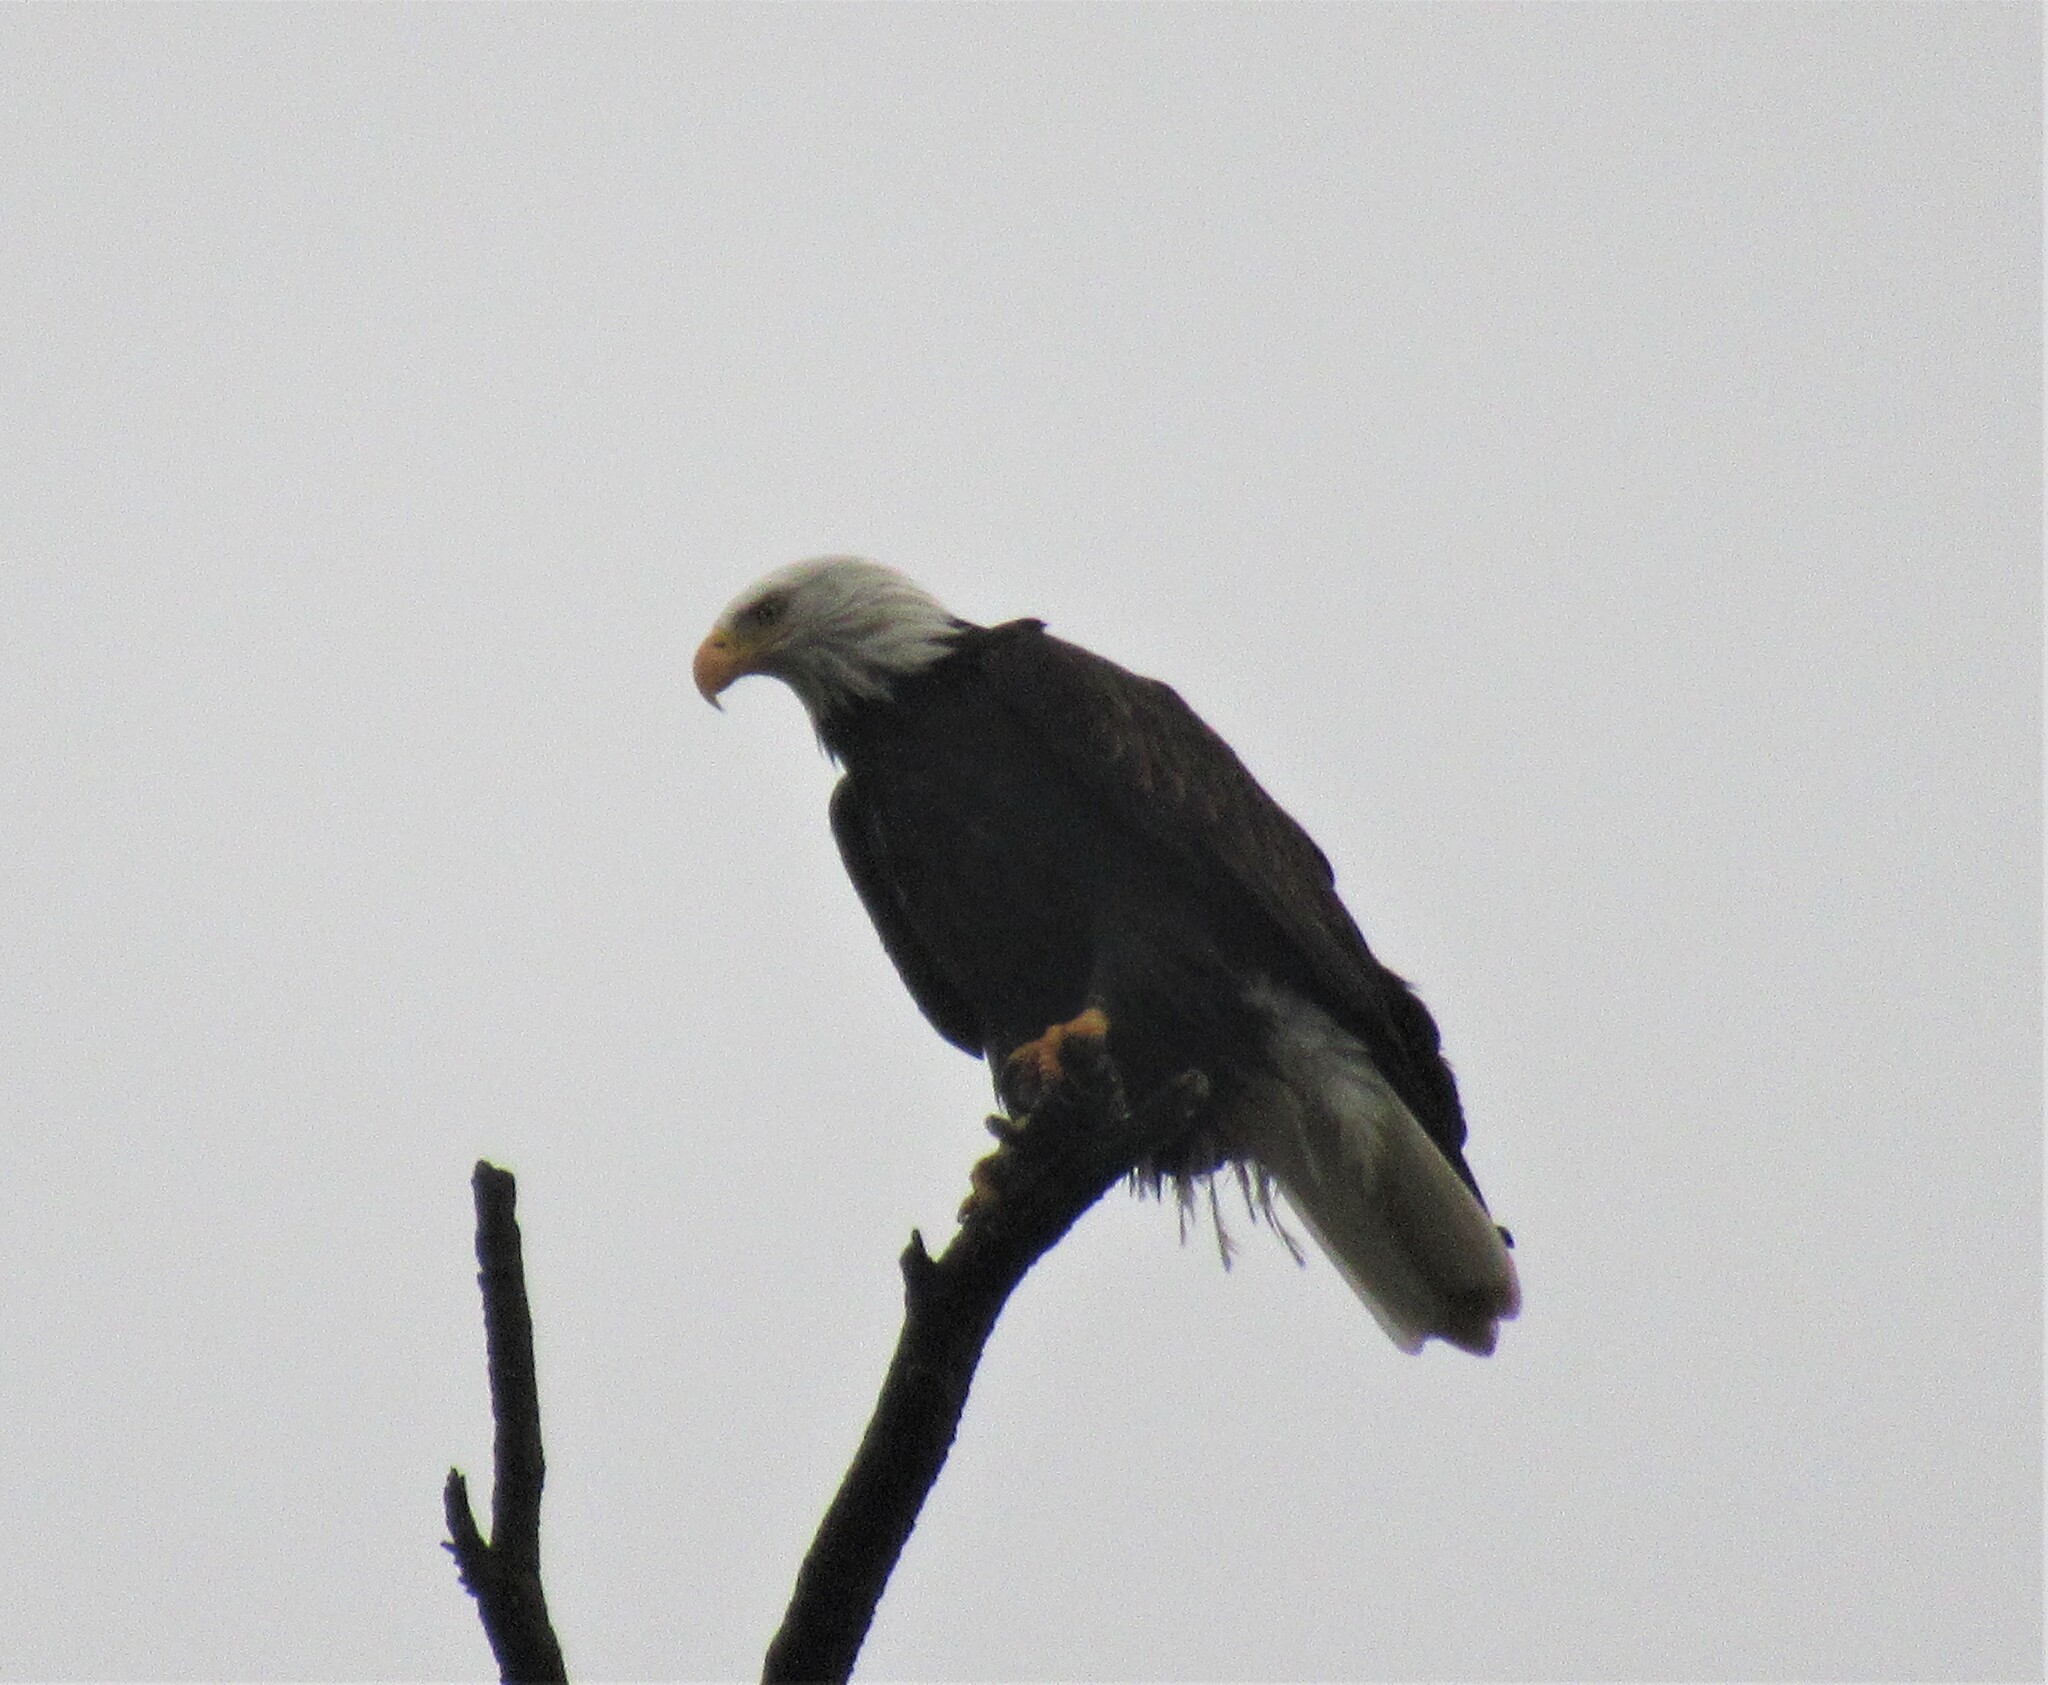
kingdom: Animalia
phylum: Chordata
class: Aves
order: Accipitriformes
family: Accipitridae
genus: Haliaeetus
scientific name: Haliaeetus leucocephalus
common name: Bald eagle
